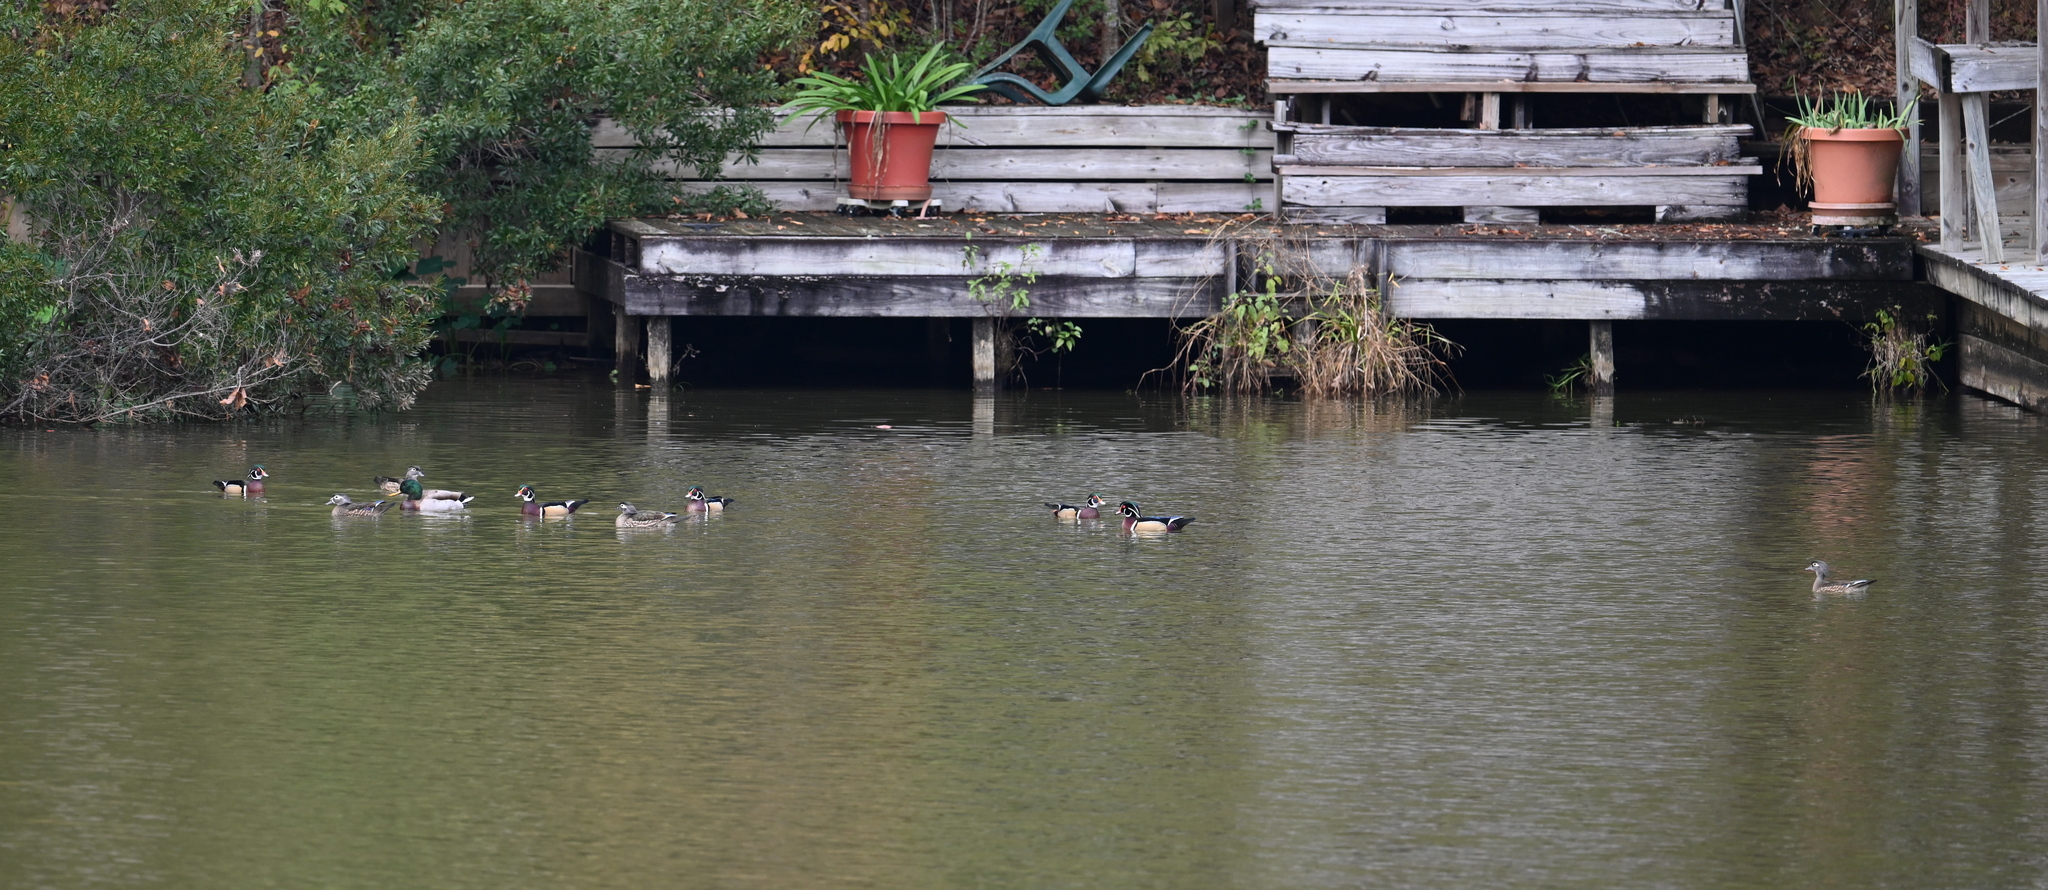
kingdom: Animalia
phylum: Chordata
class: Aves
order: Anseriformes
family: Anatidae
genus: Aix
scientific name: Aix sponsa
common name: Wood duck
